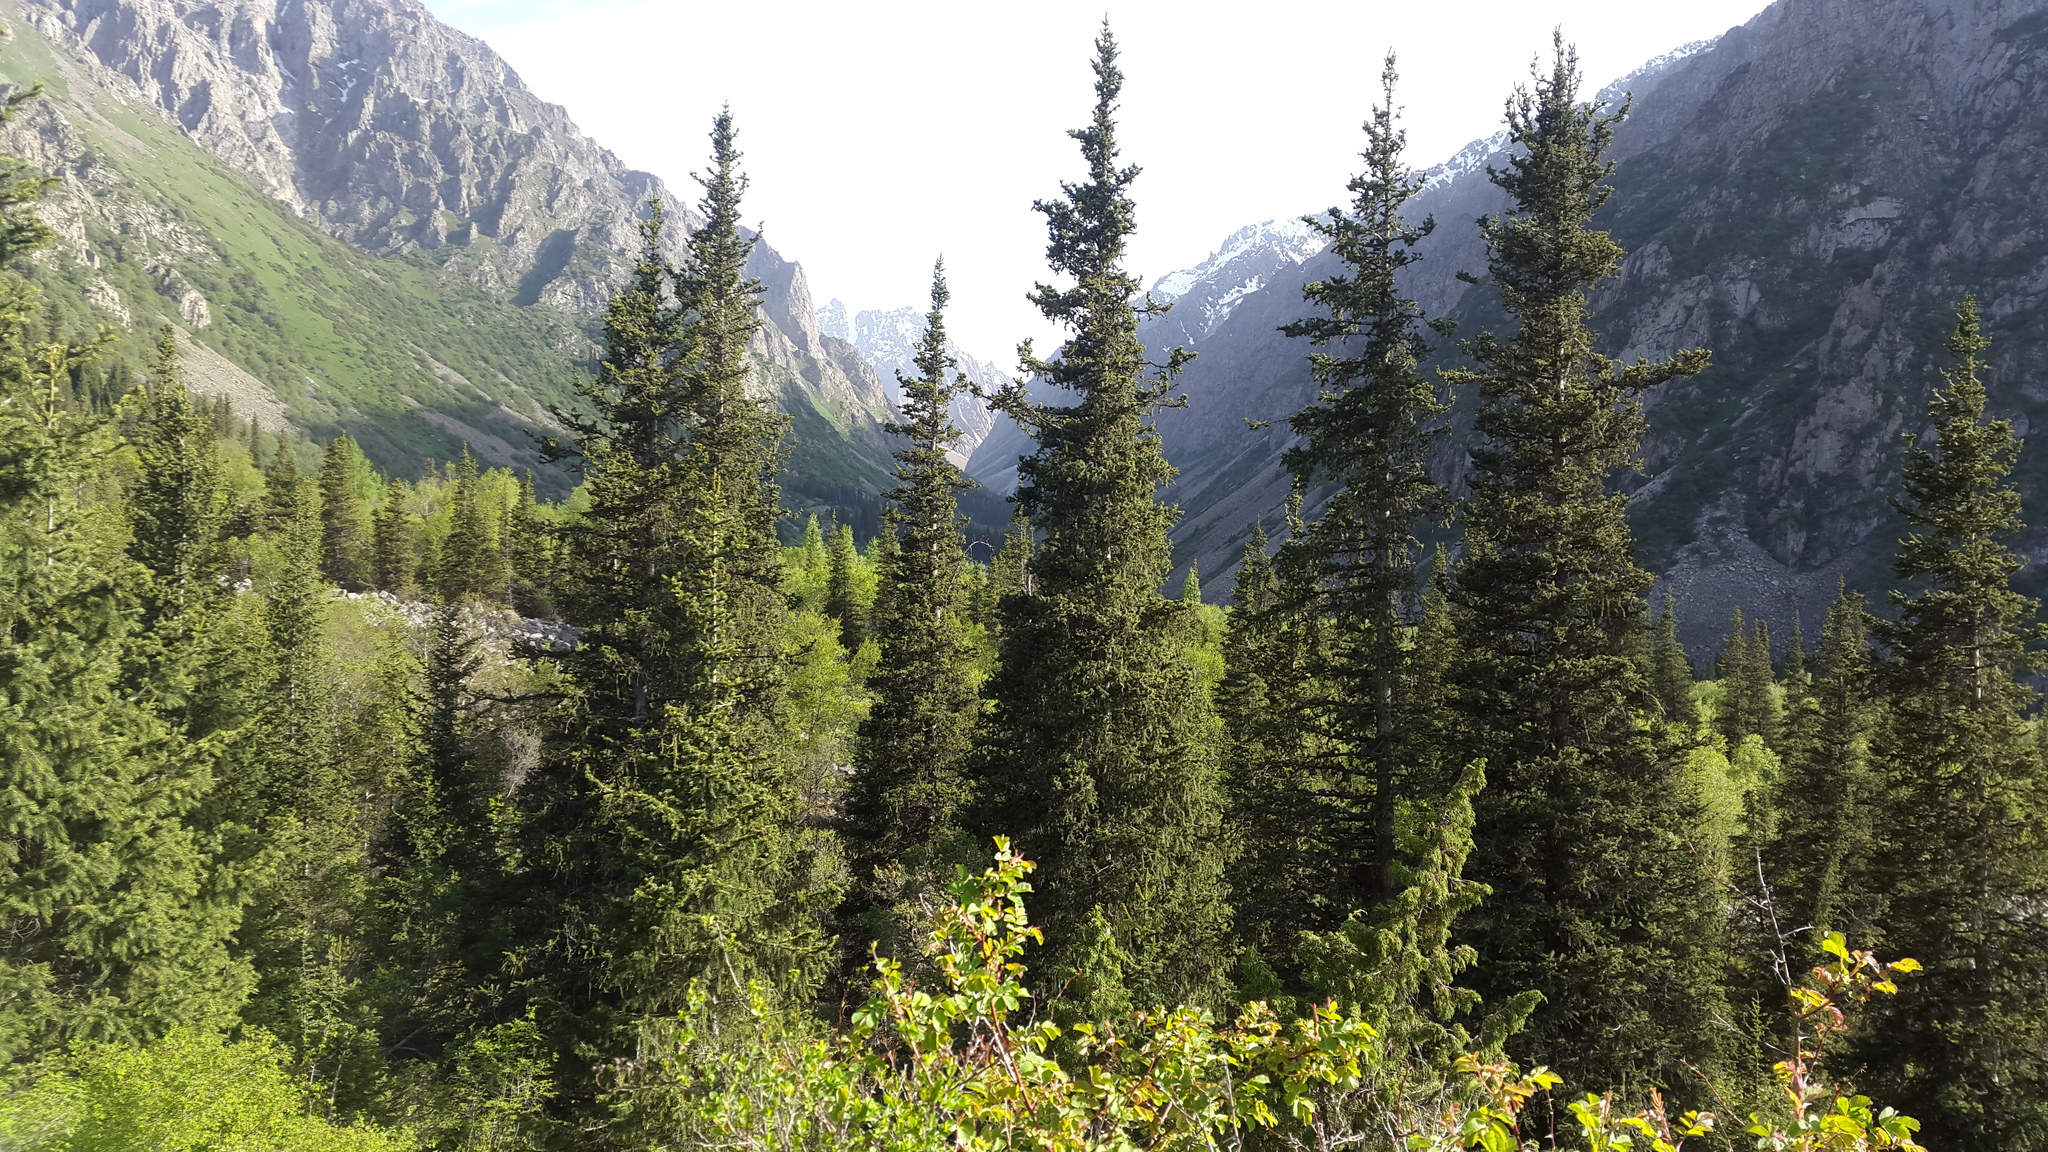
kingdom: Plantae
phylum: Tracheophyta
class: Pinopsida
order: Pinales
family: Pinaceae
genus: Picea
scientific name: Picea schrenkiana
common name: Asian spruce
